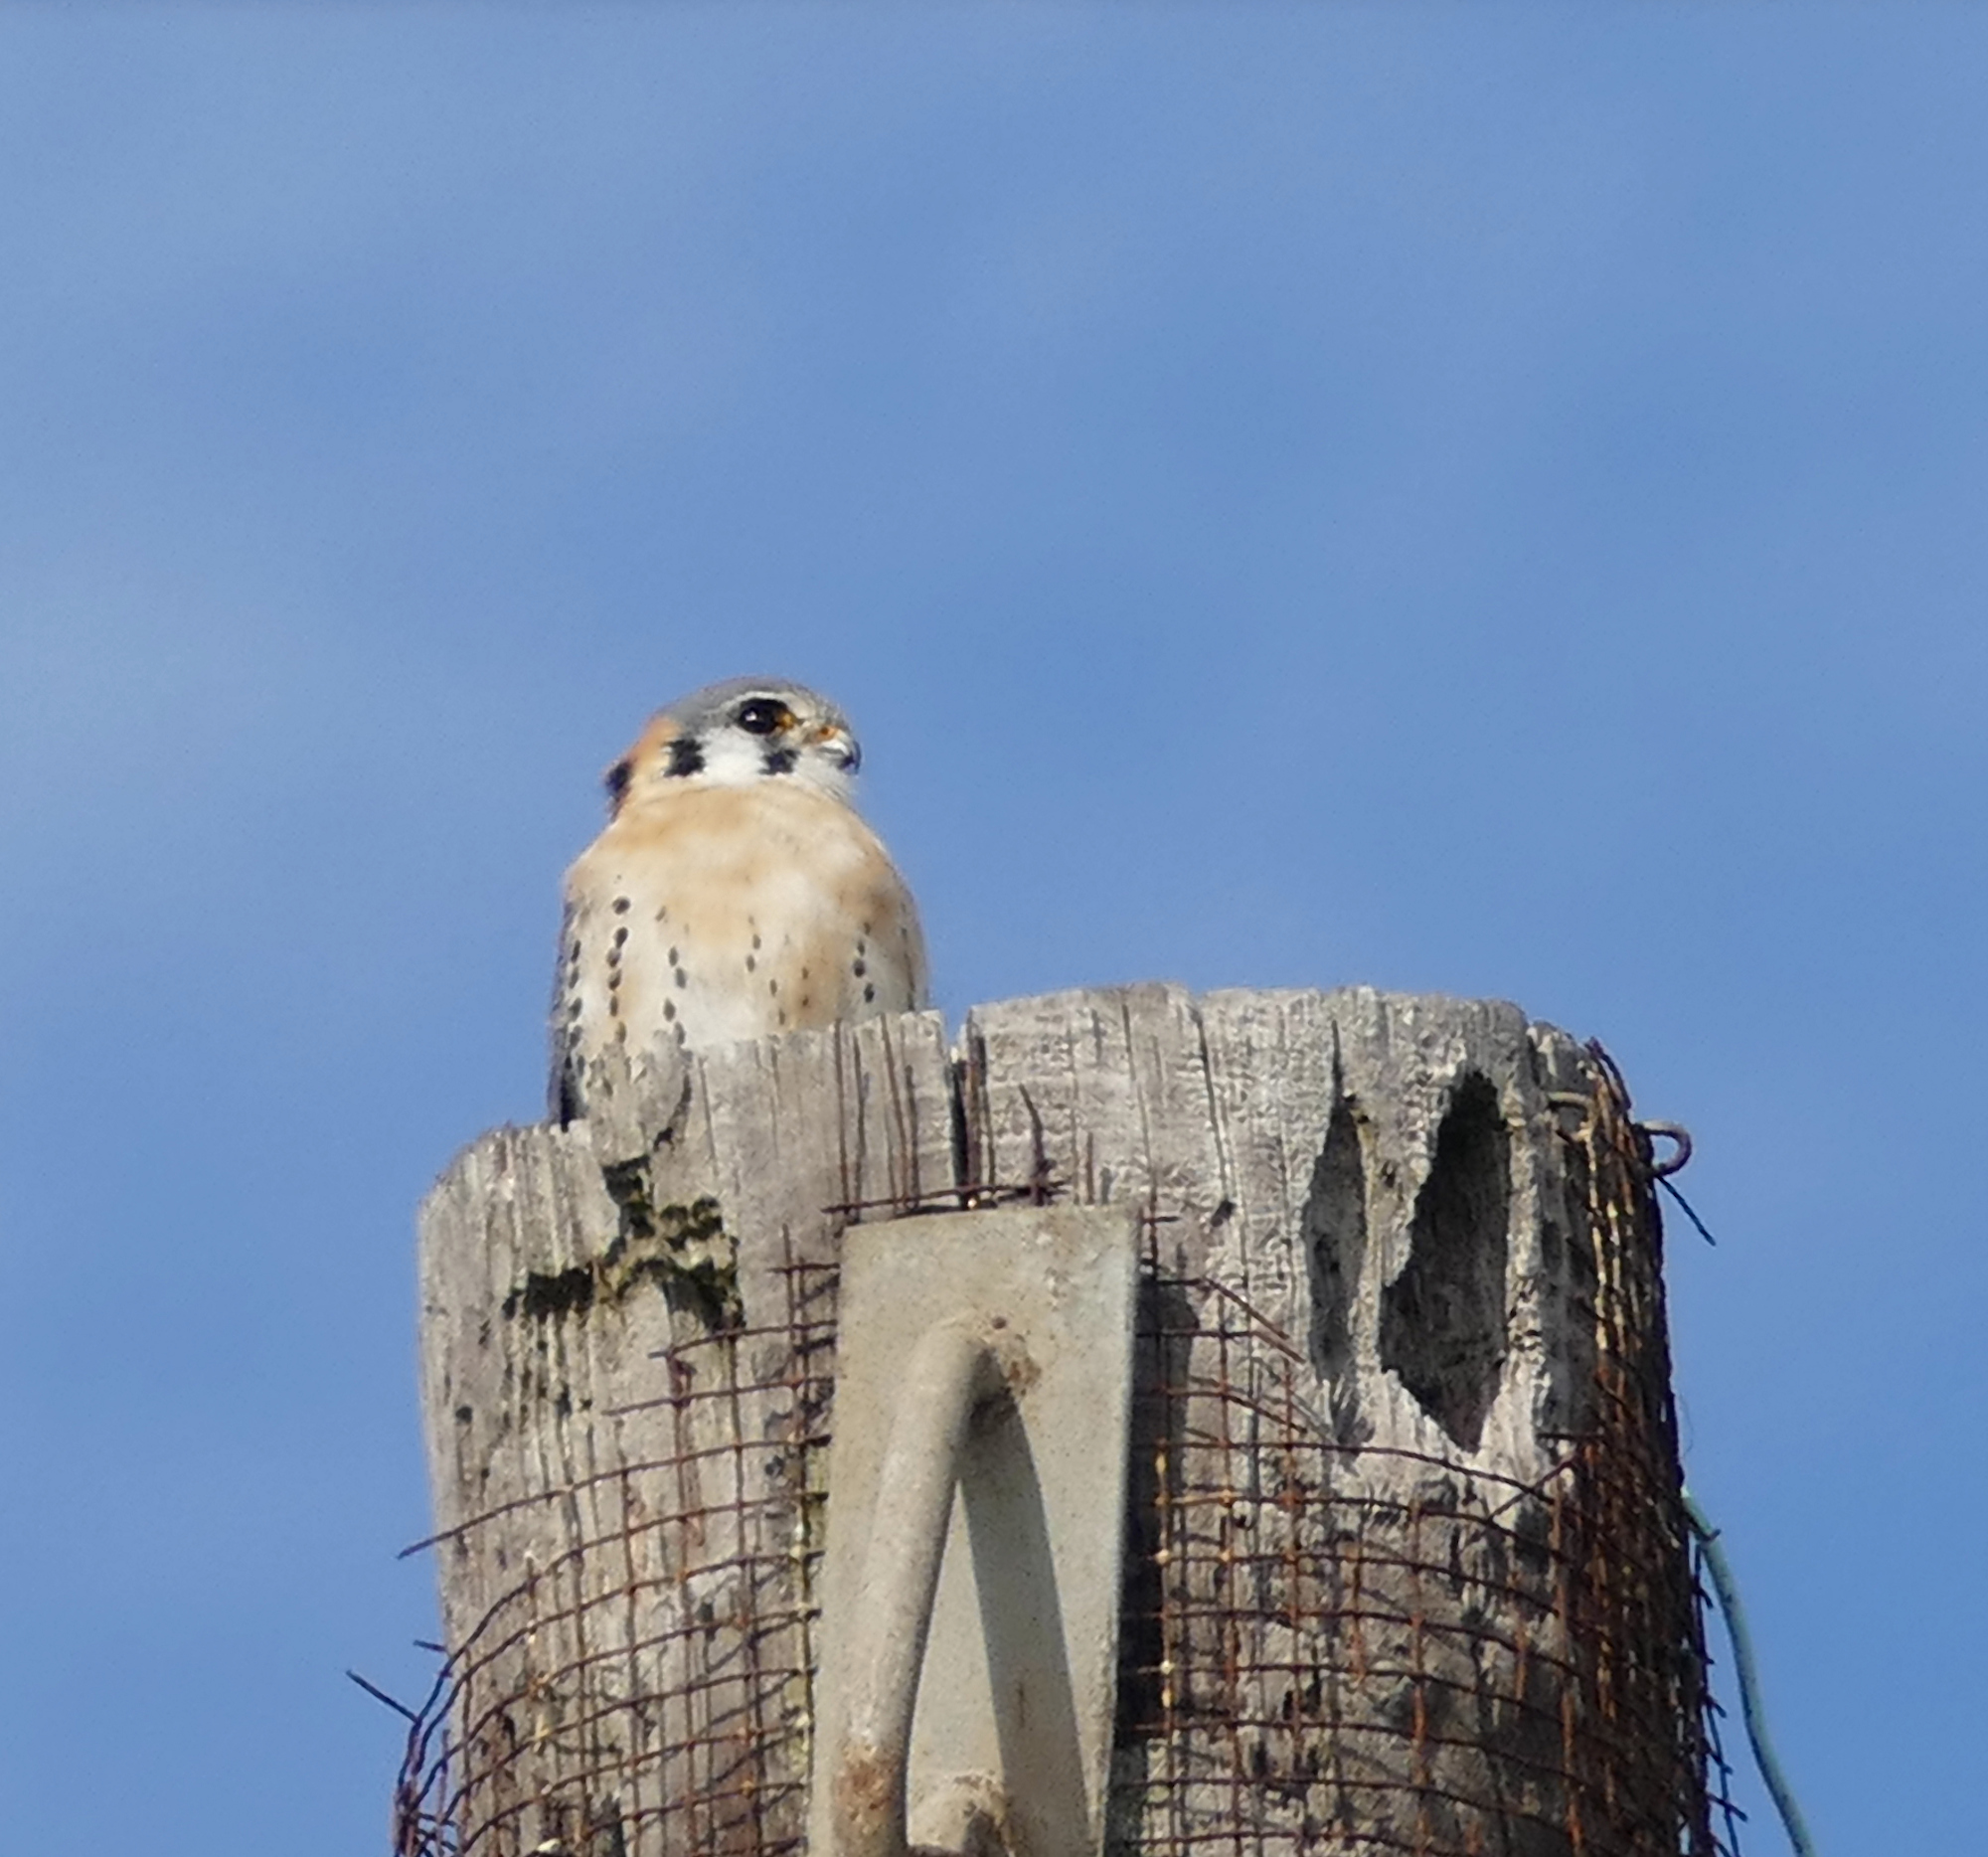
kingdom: Animalia
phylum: Chordata
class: Aves
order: Falconiformes
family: Falconidae
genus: Falco
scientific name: Falco sparverius
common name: American kestrel
